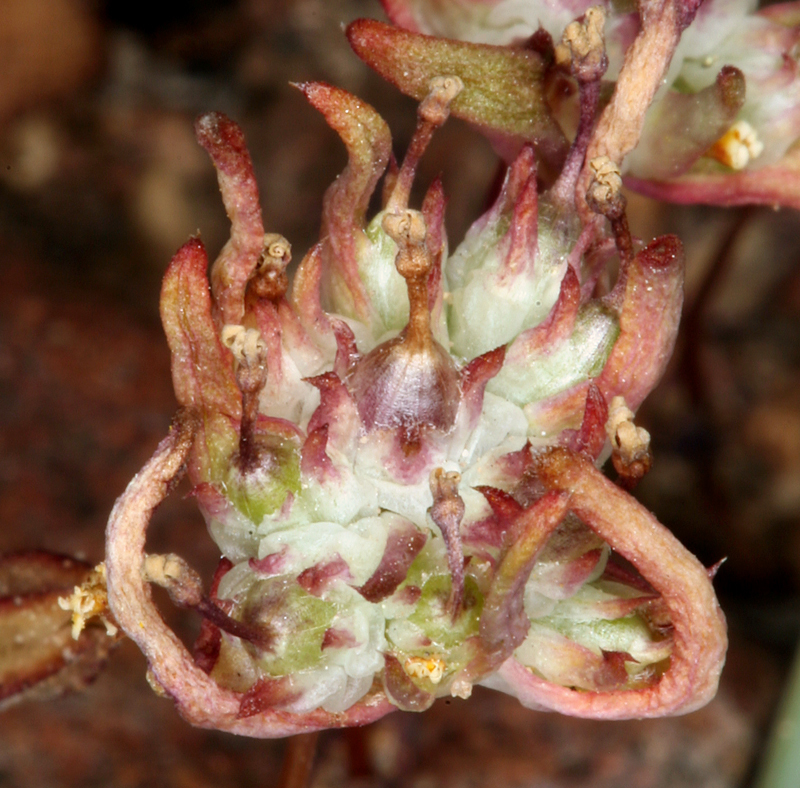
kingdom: Plantae
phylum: Tracheophyta
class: Magnoliopsida
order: Ericales
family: Polemoniaceae
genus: Gymnosteris
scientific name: Gymnosteris parvula
